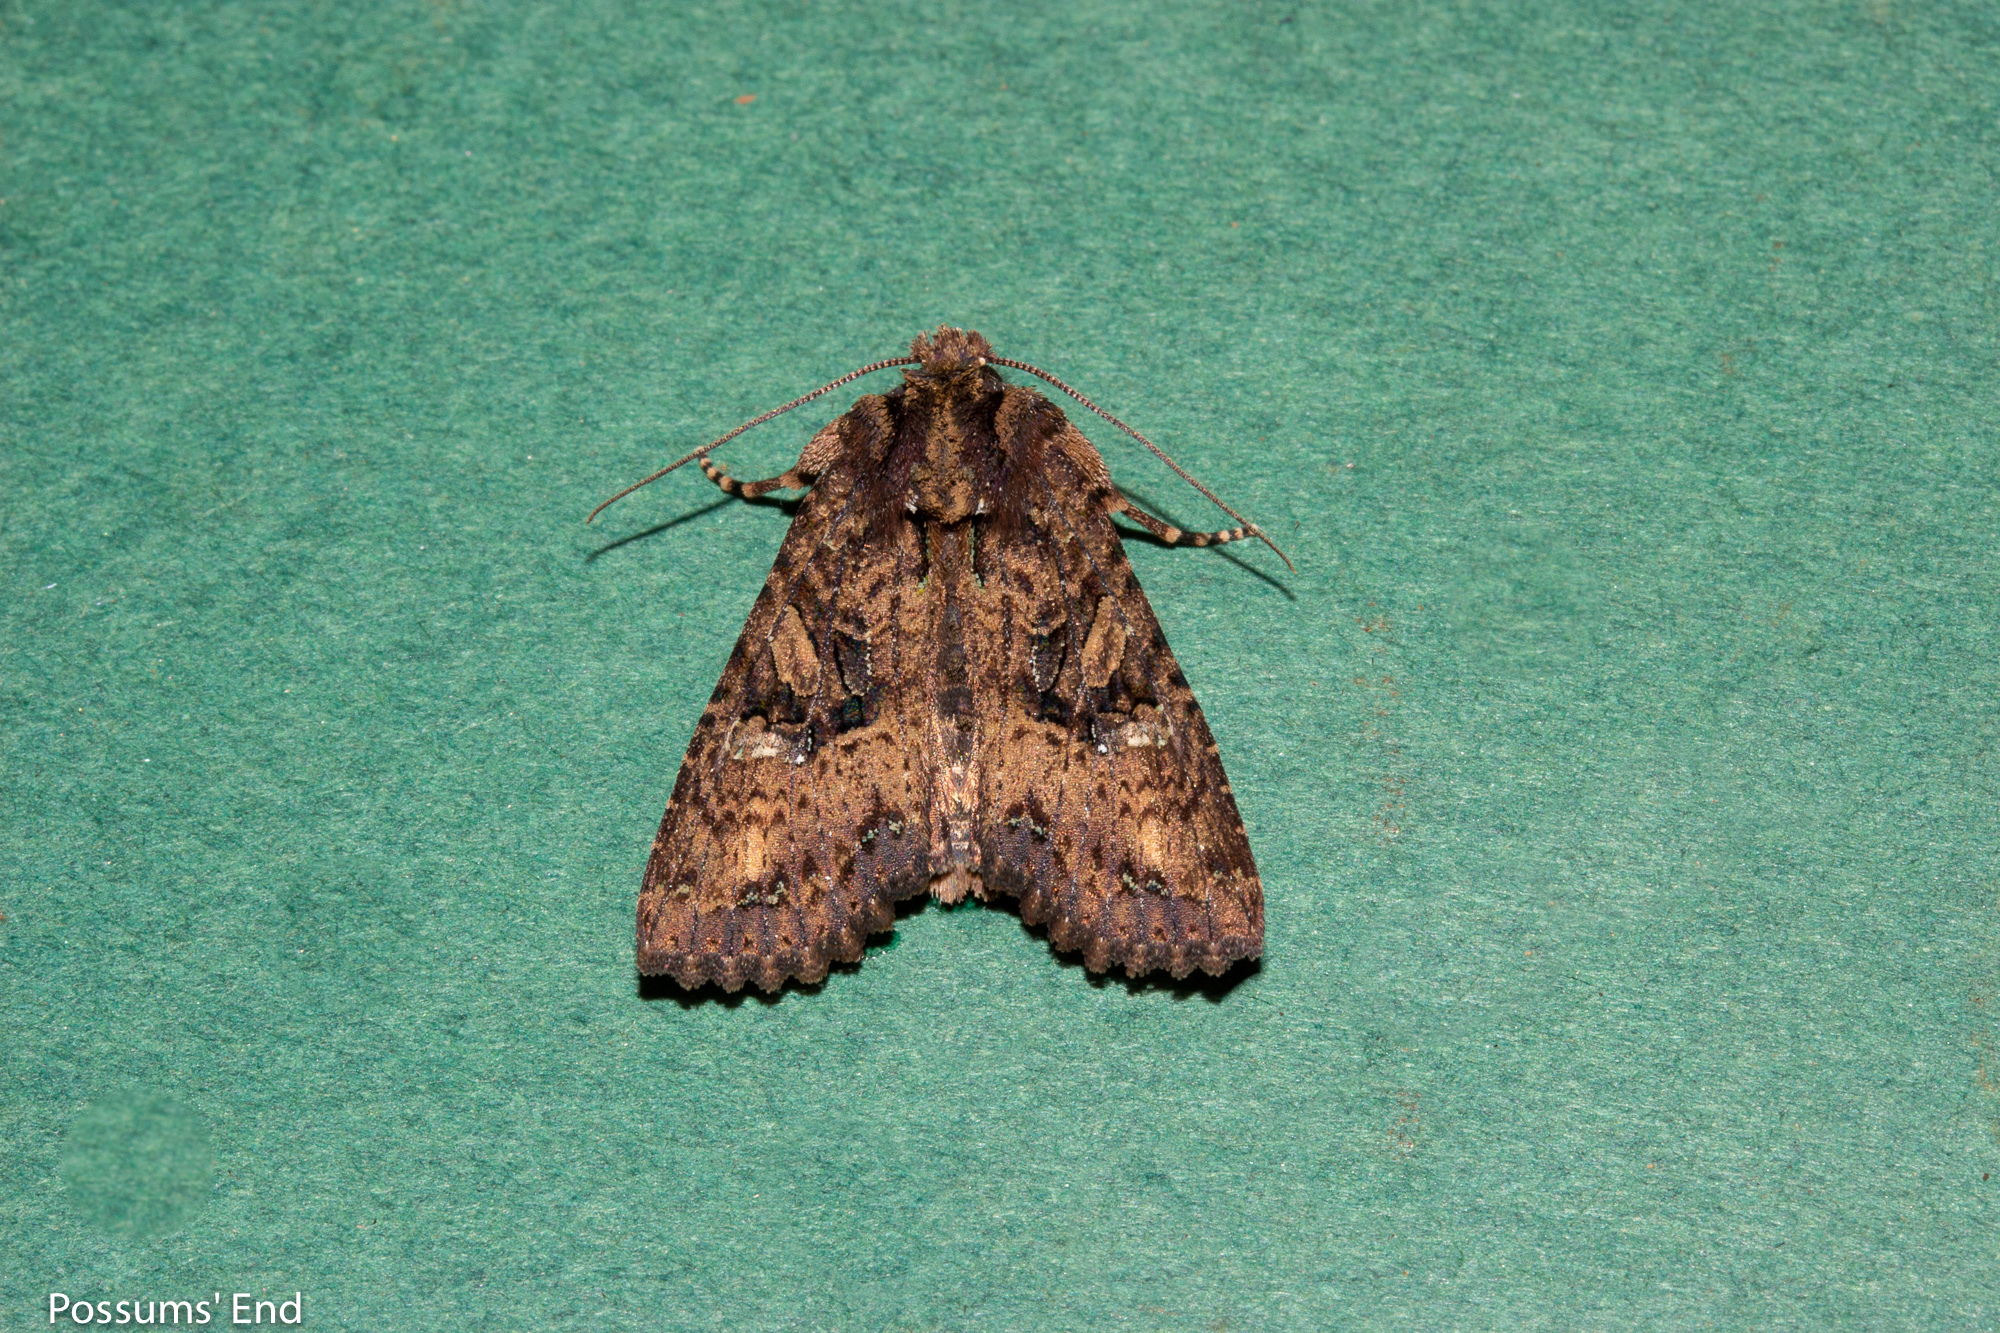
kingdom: Animalia
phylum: Arthropoda
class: Insecta
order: Lepidoptera
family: Noctuidae
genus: Meterana
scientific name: Meterana ochthistis
